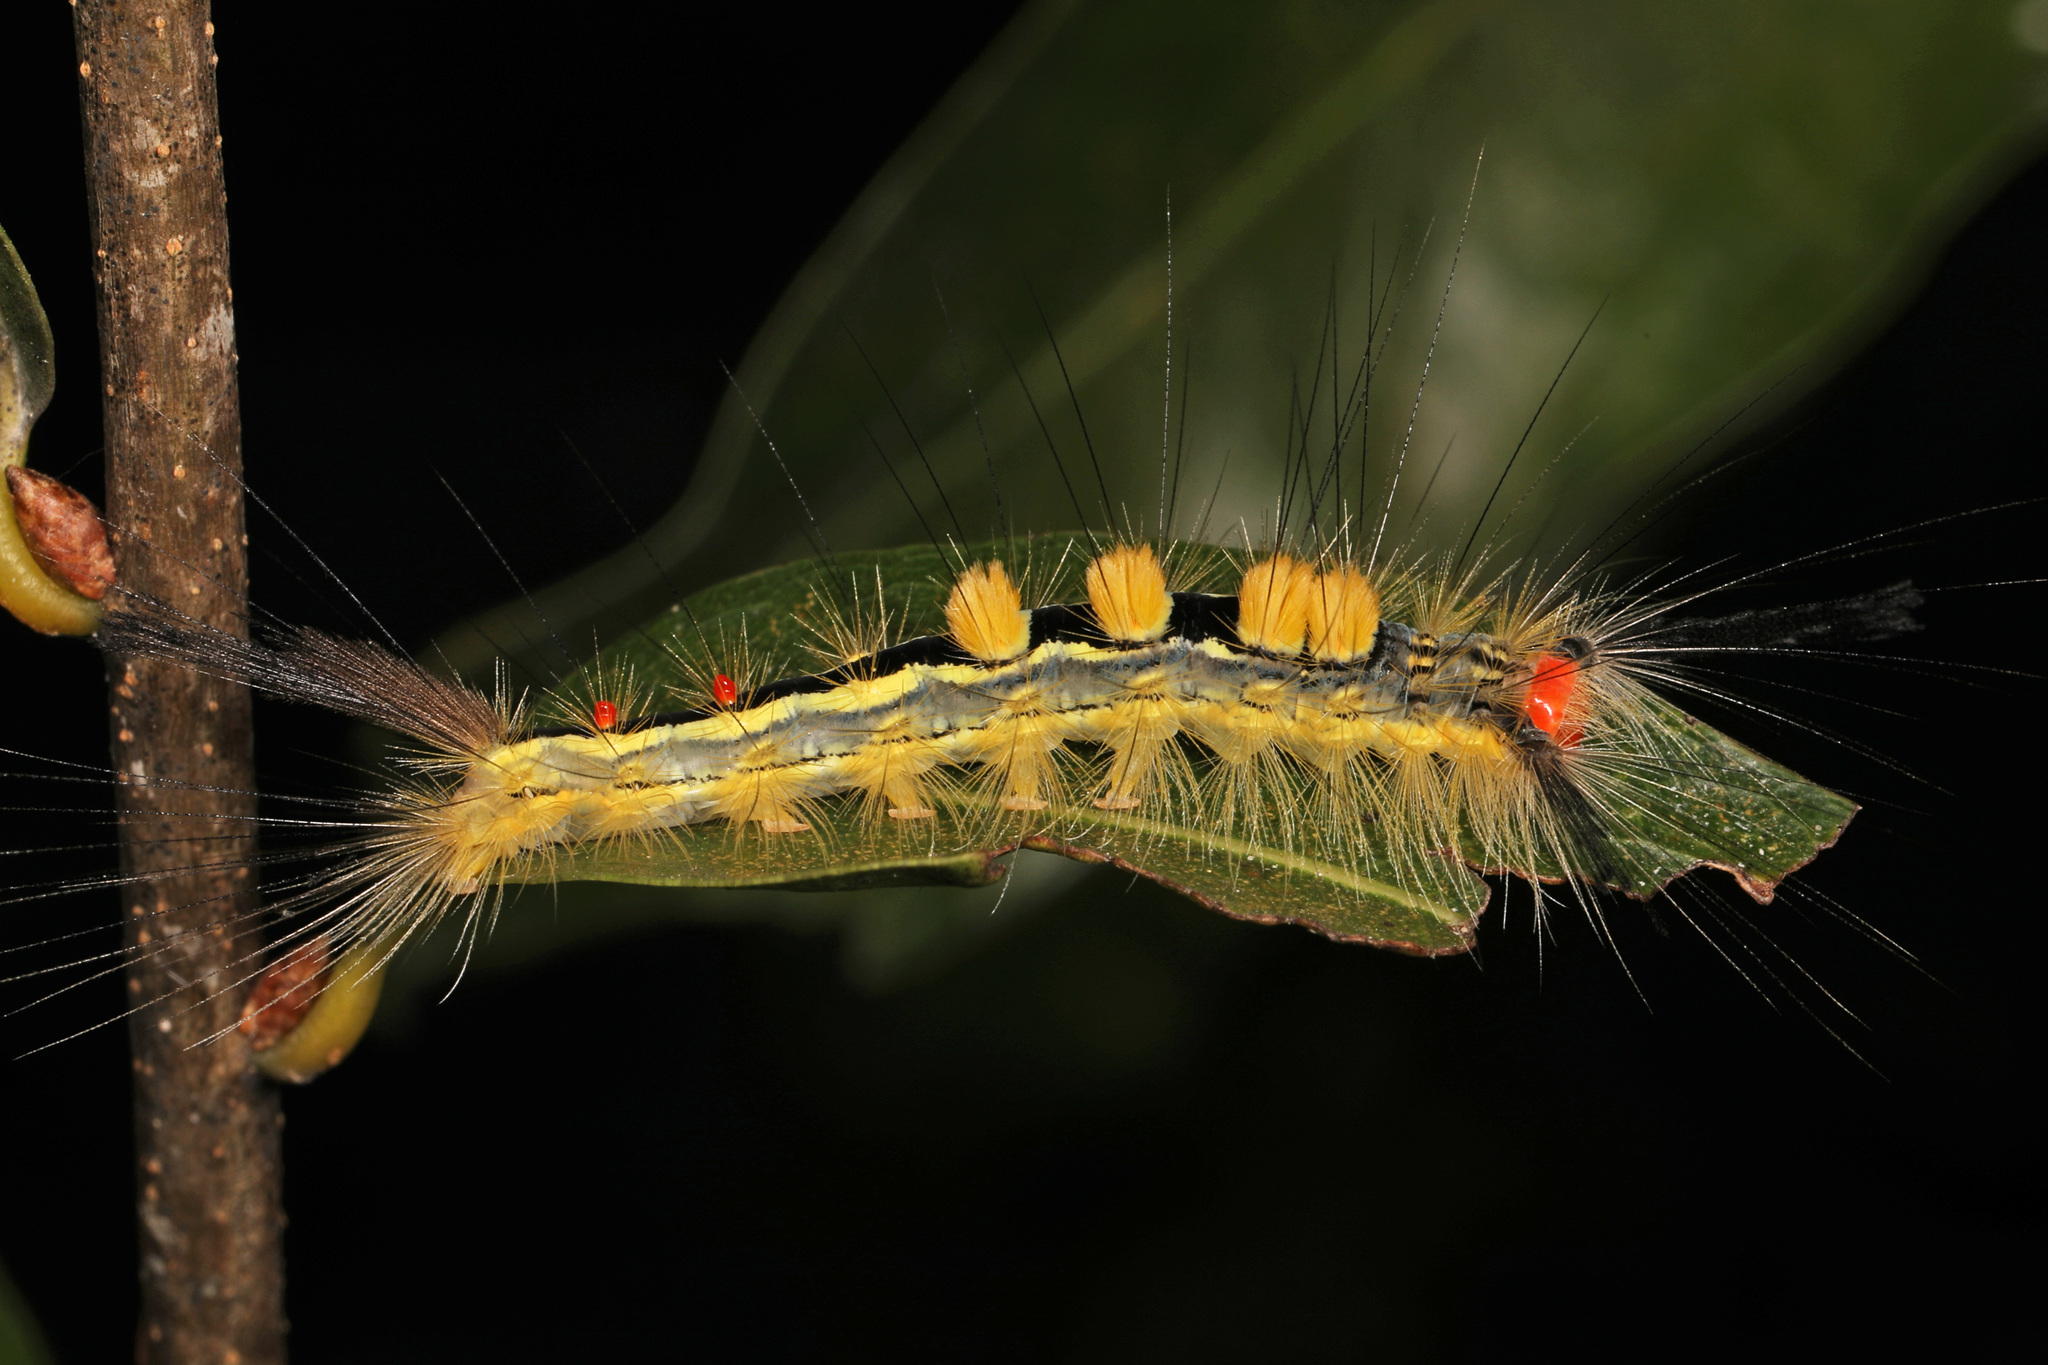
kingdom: Animalia
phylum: Arthropoda
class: Insecta
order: Lepidoptera
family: Erebidae
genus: Orgyia
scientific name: Orgyia leucostigma
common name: White-marked tussock moth
